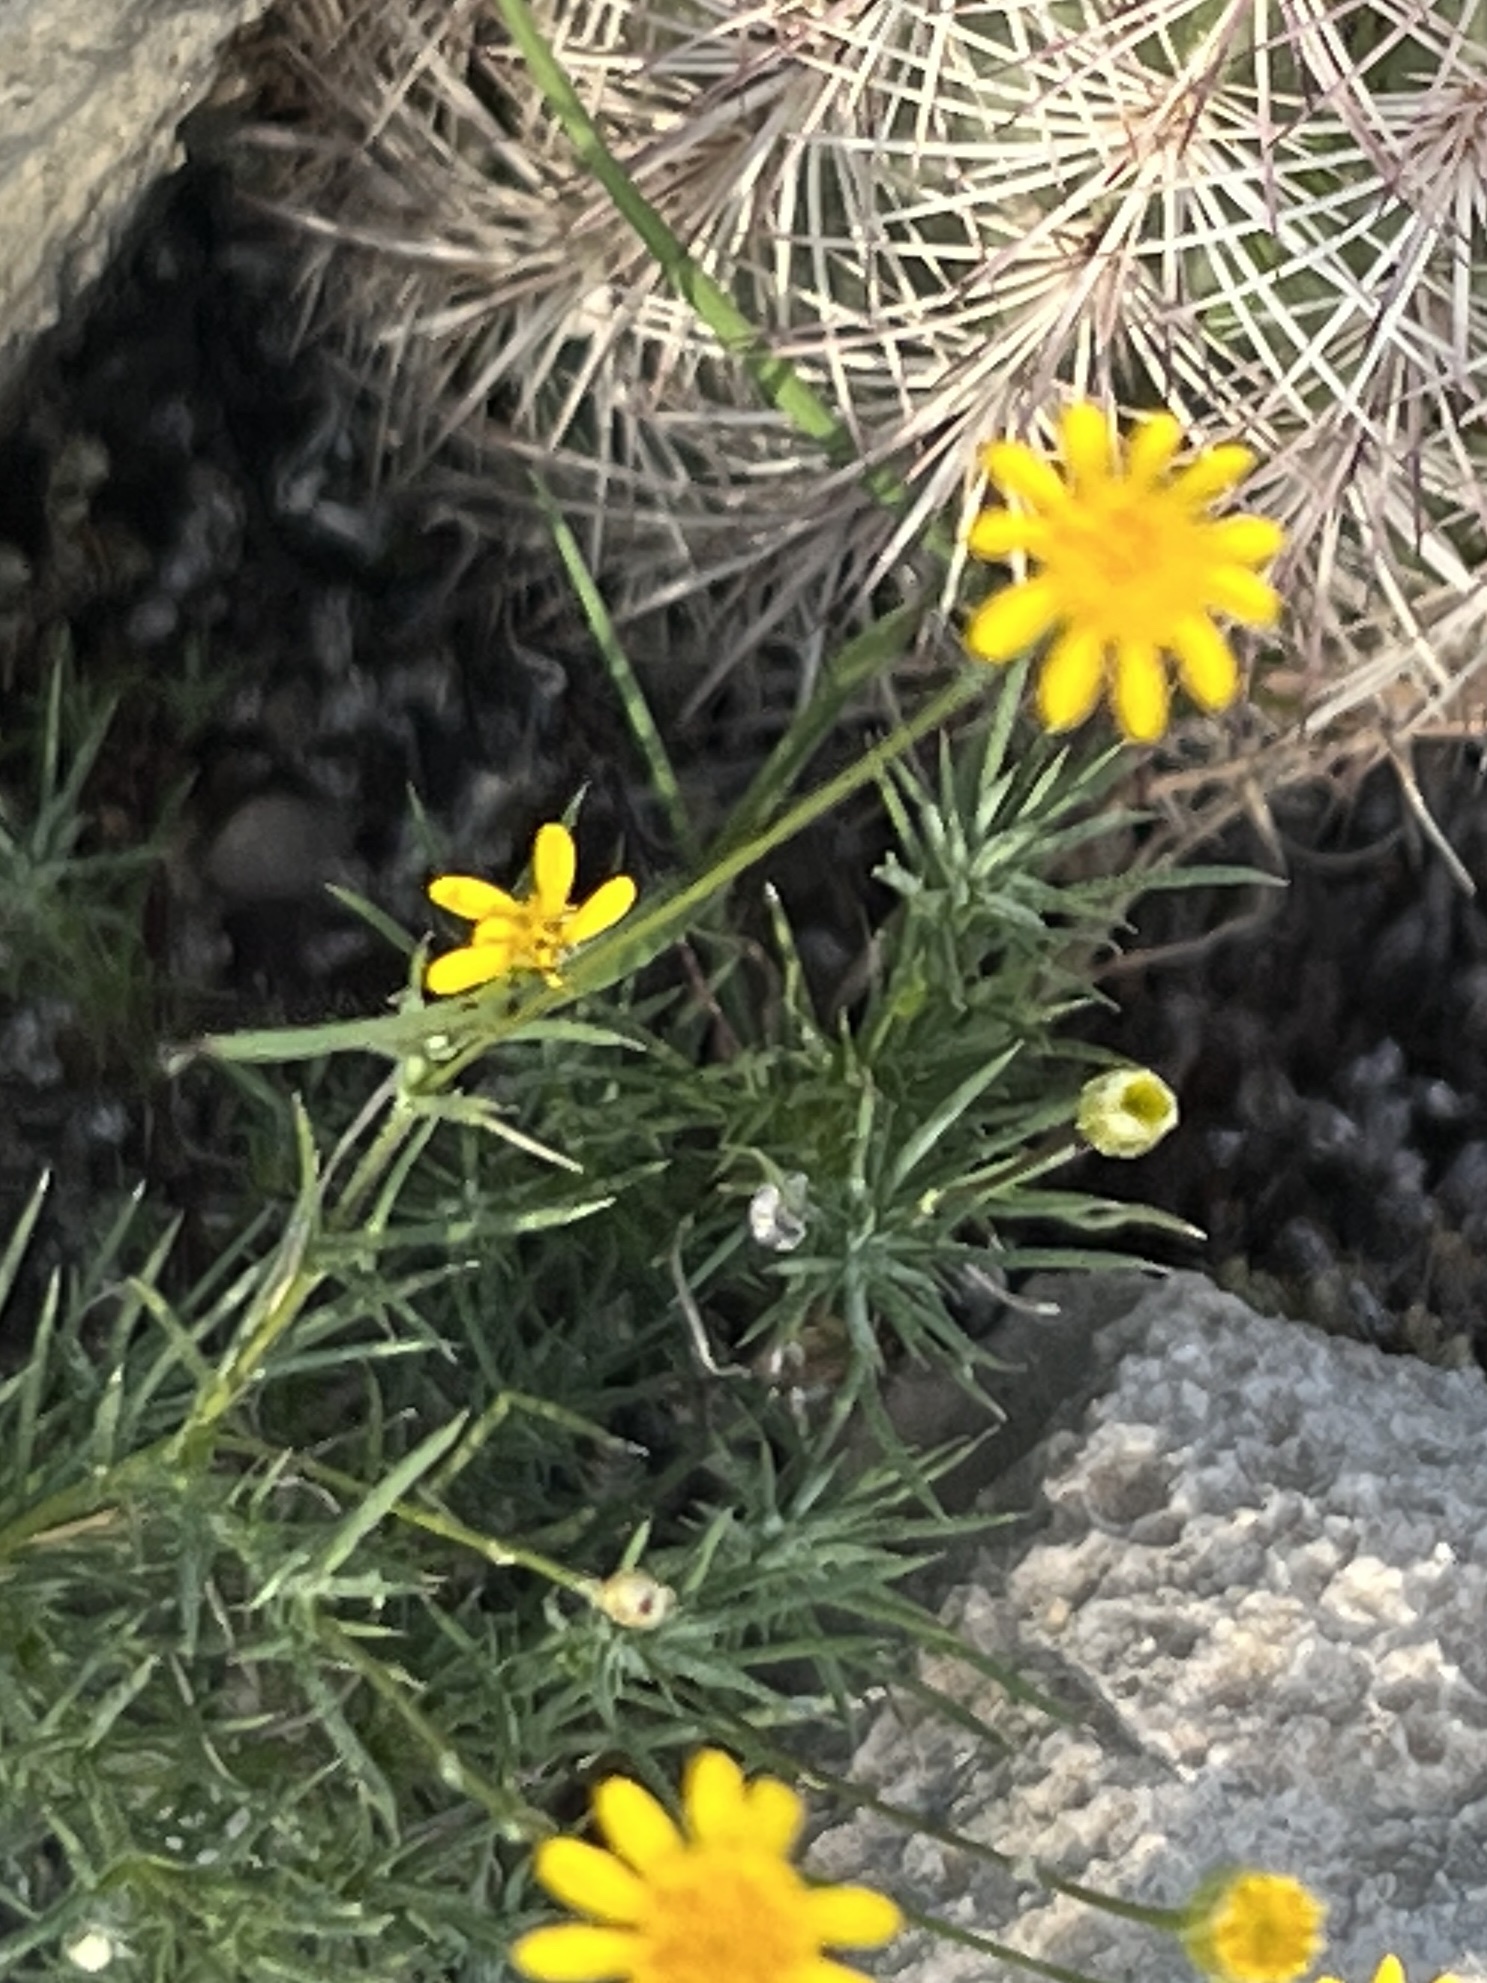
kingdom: Plantae
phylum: Tracheophyta
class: Magnoliopsida
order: Asterales
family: Asteraceae
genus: Thymophylla
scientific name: Thymophylla pentachaeta
